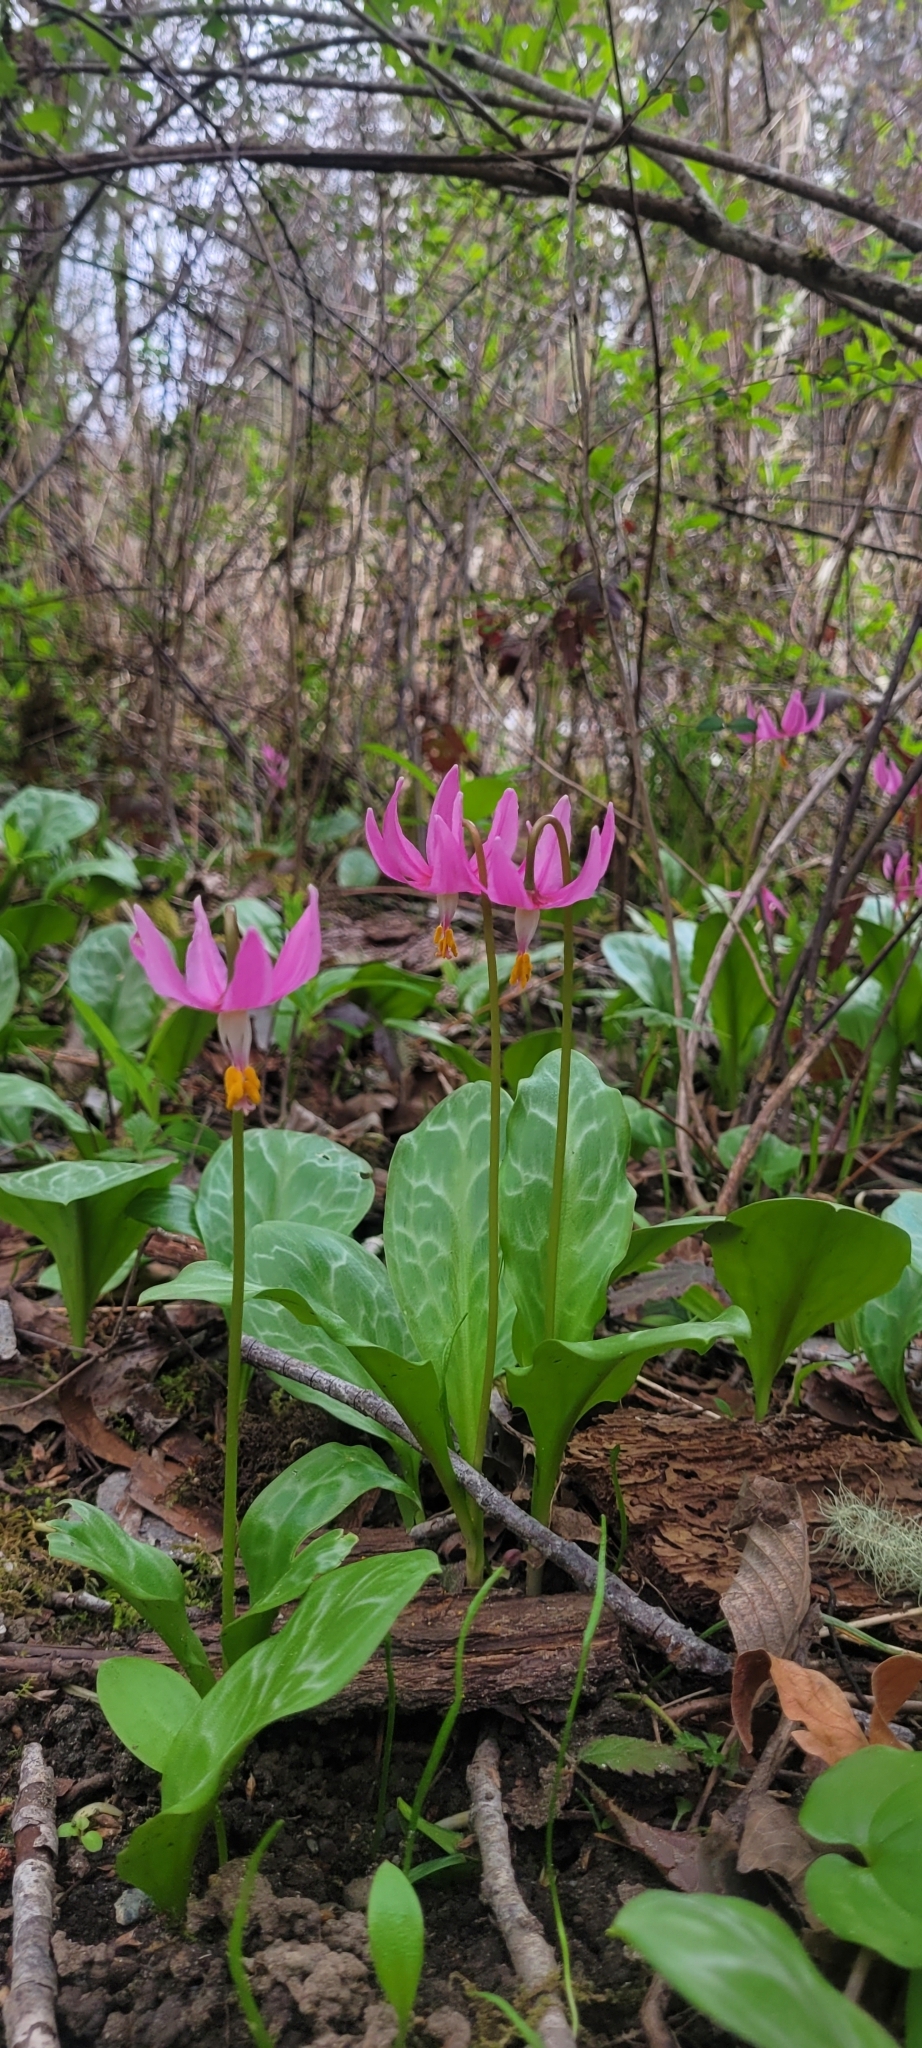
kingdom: Plantae
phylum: Tracheophyta
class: Liliopsida
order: Liliales
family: Liliaceae
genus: Erythronium
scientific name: Erythronium revolutum
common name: Pink fawn-lily
